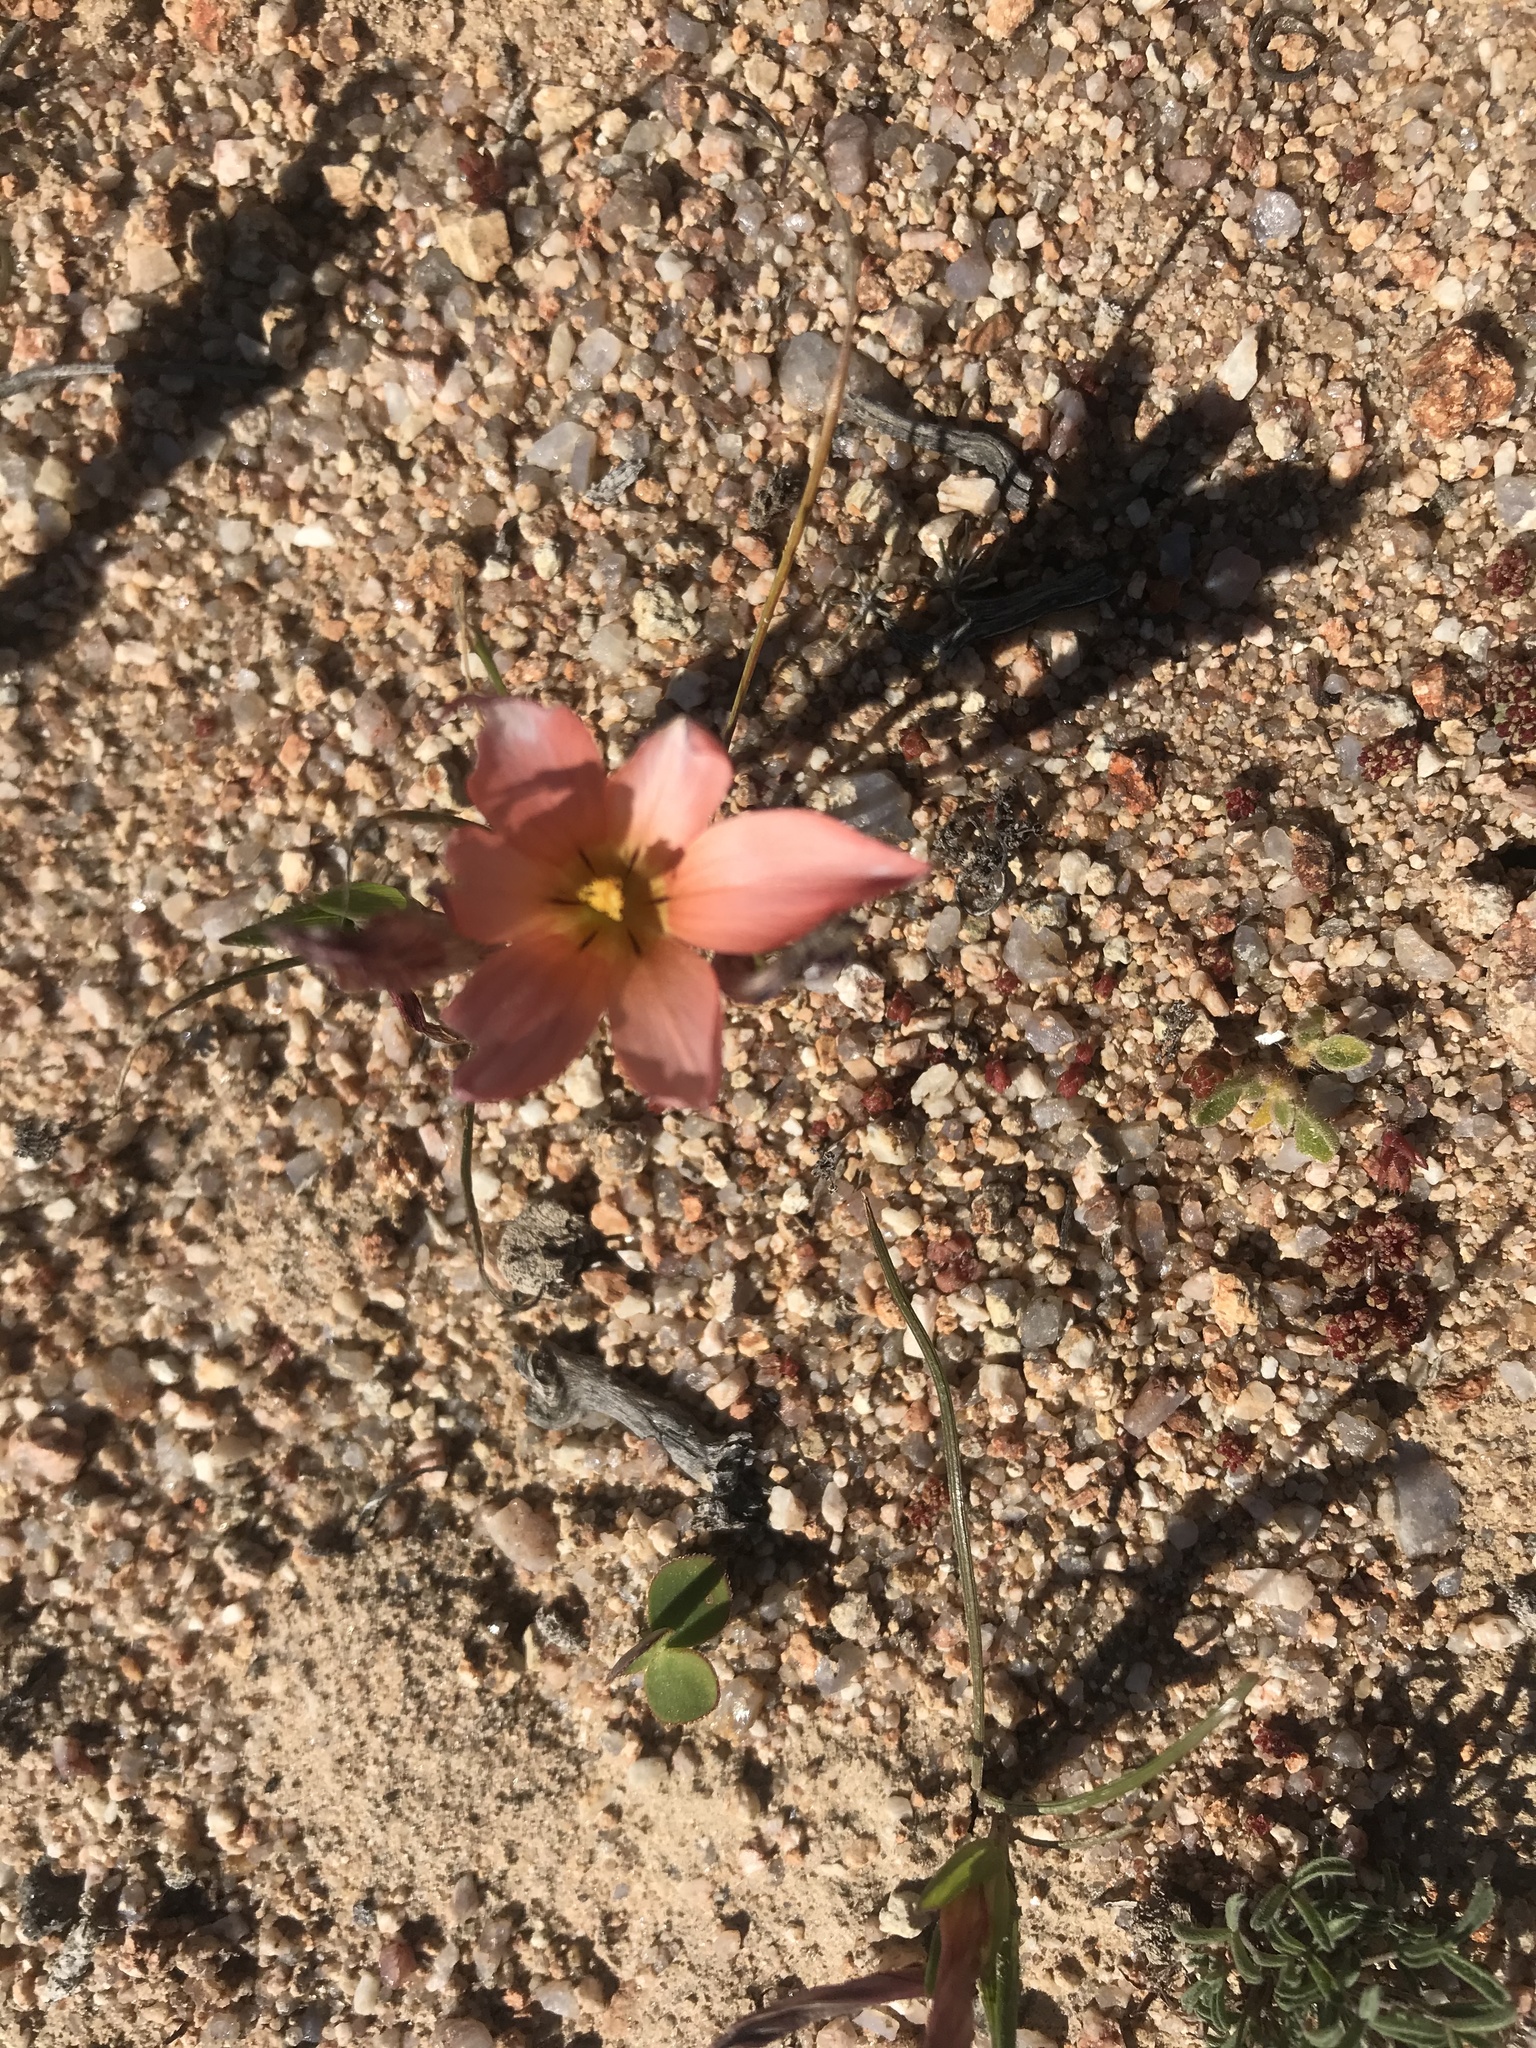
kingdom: Plantae
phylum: Tracheophyta
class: Liliopsida
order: Asparagales
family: Iridaceae
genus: Romulea
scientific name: Romulea namaquensis
